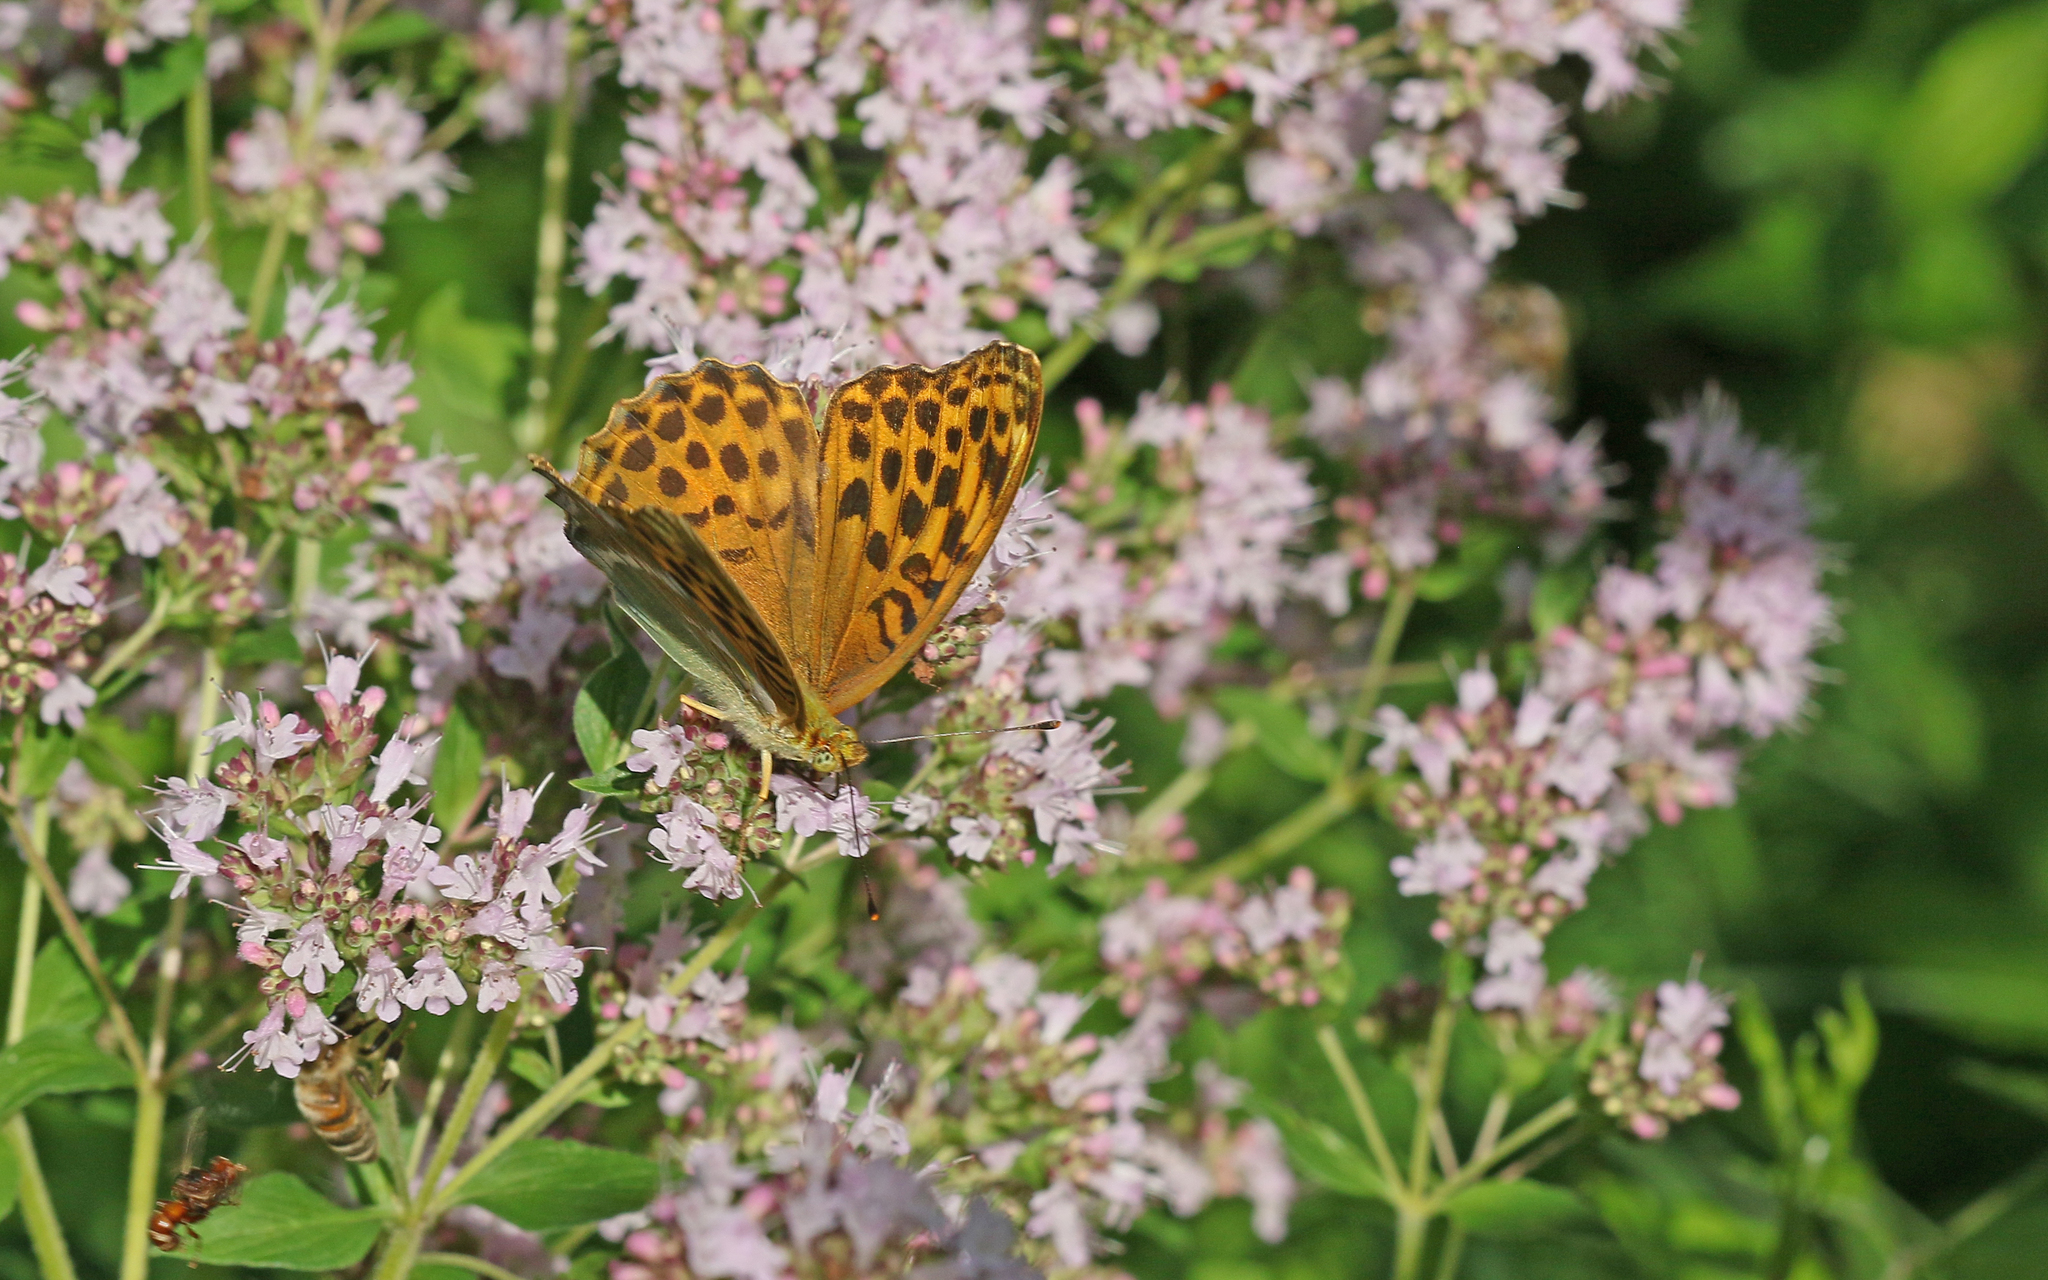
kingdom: Animalia
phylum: Arthropoda
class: Insecta
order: Lepidoptera
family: Nymphalidae
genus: Argynnis
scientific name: Argynnis paphia
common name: Silver-washed fritillary
